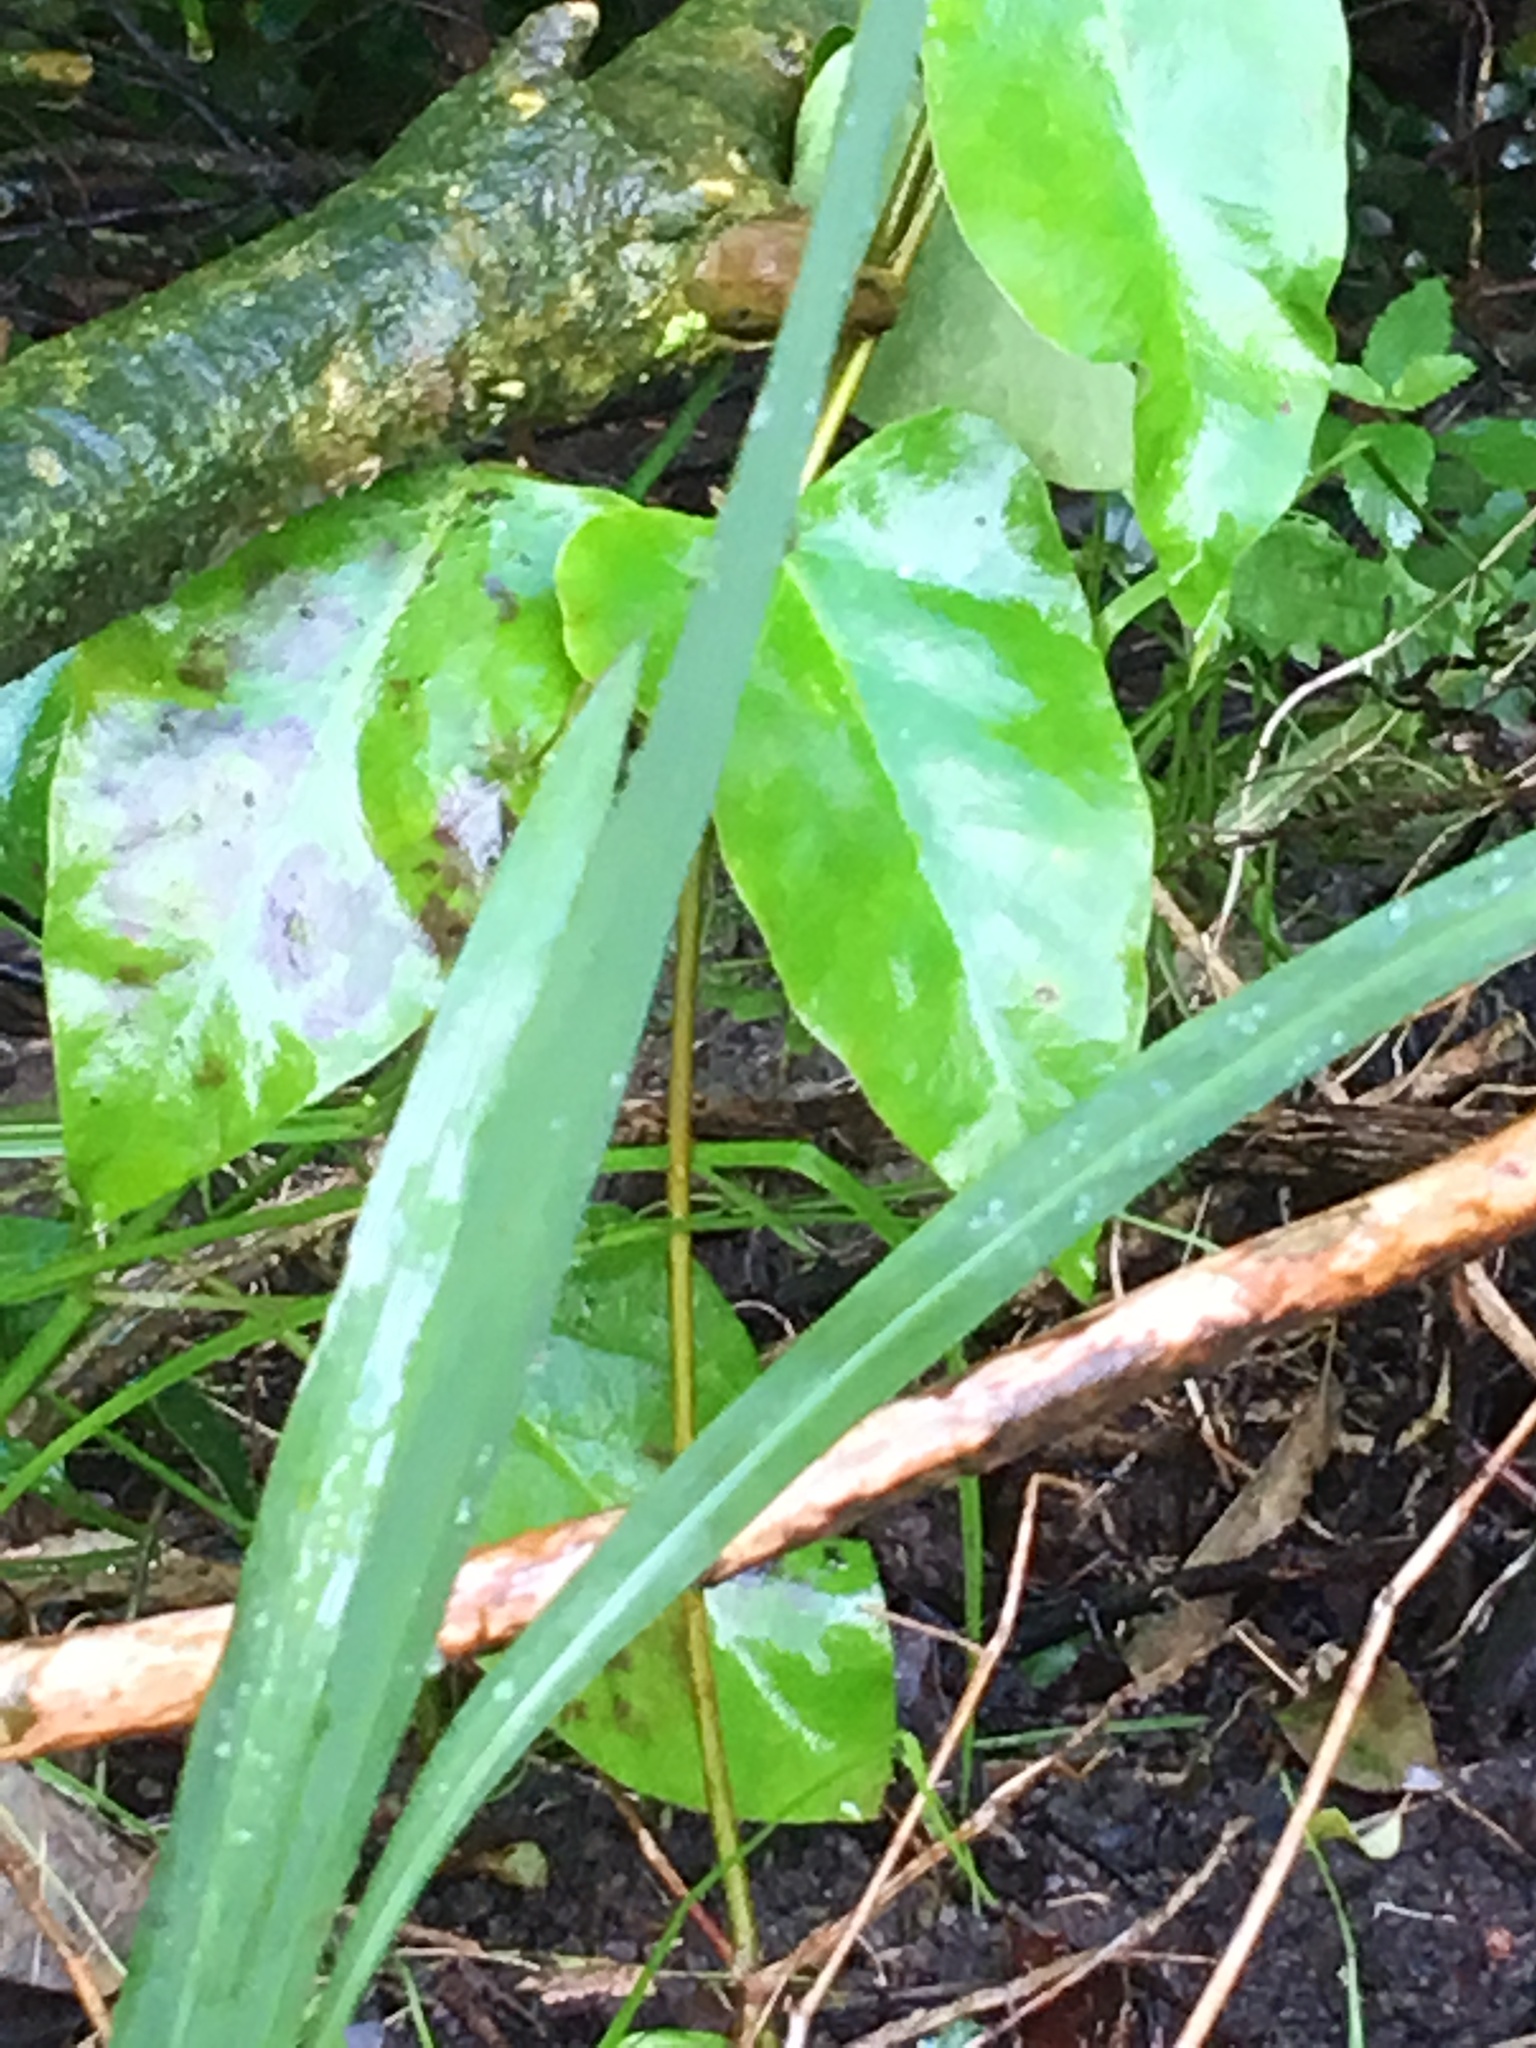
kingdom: Plantae
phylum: Tracheophyta
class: Magnoliopsida
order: Gentianales
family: Apocynaceae
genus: Araujia
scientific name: Araujia sericifera
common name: White bladderflower
